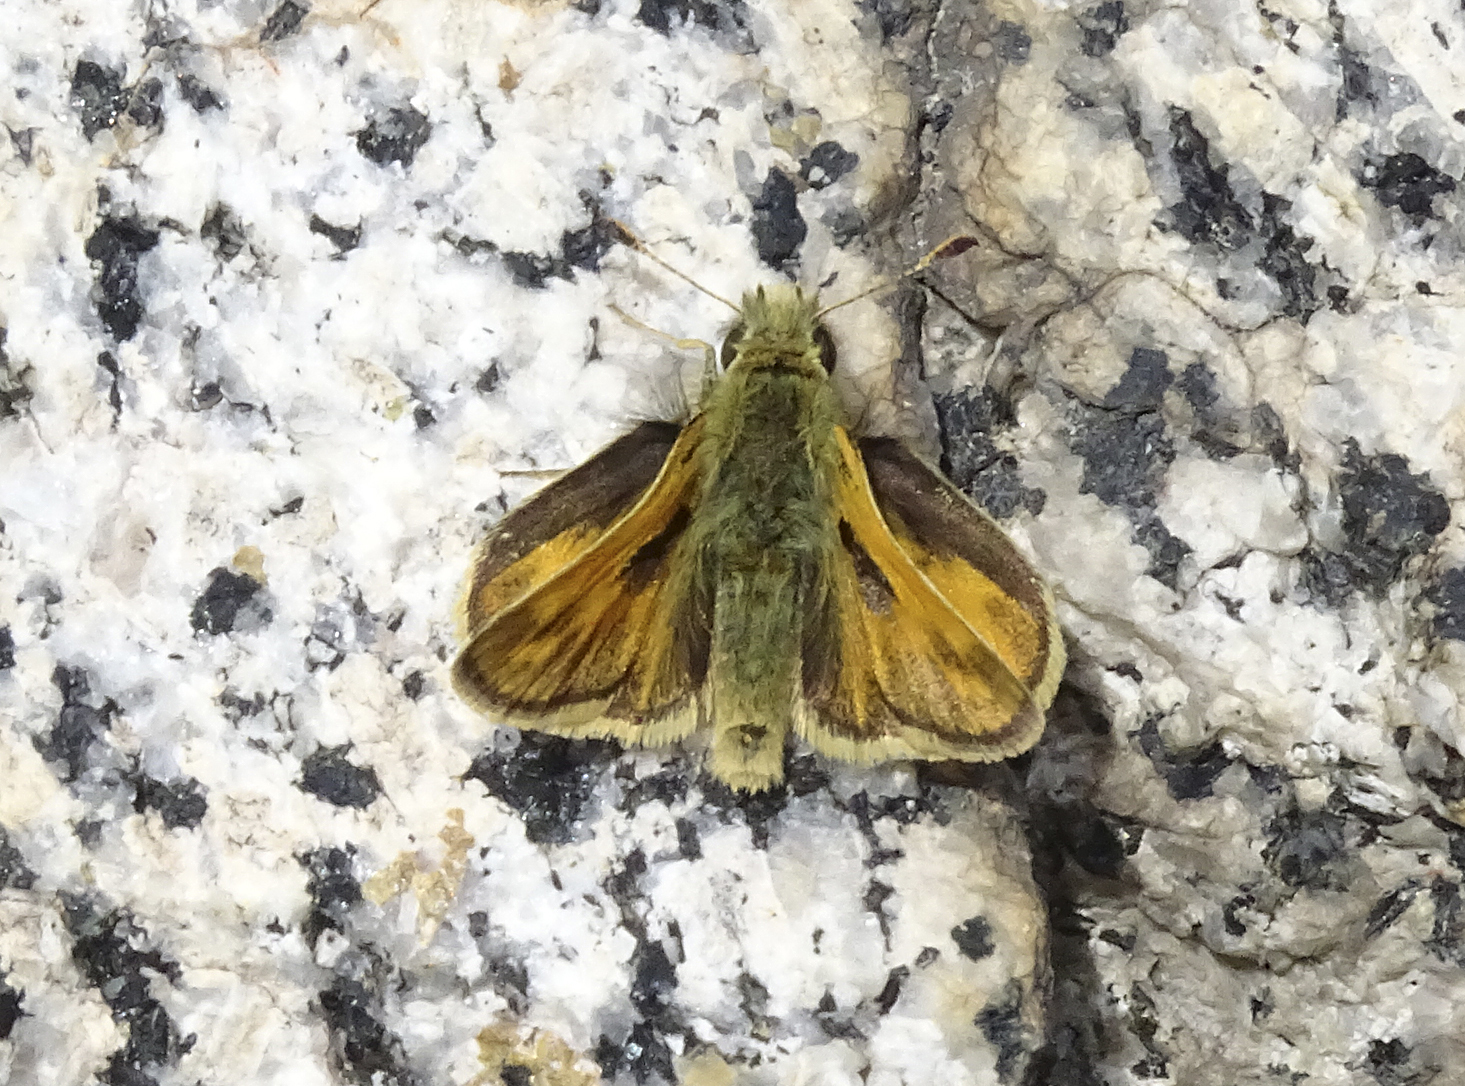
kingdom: Animalia
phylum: Arthropoda
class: Insecta
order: Lepidoptera
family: Hesperiidae
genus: Polites
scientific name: Polites sabuleti
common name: Sandhill skipper
